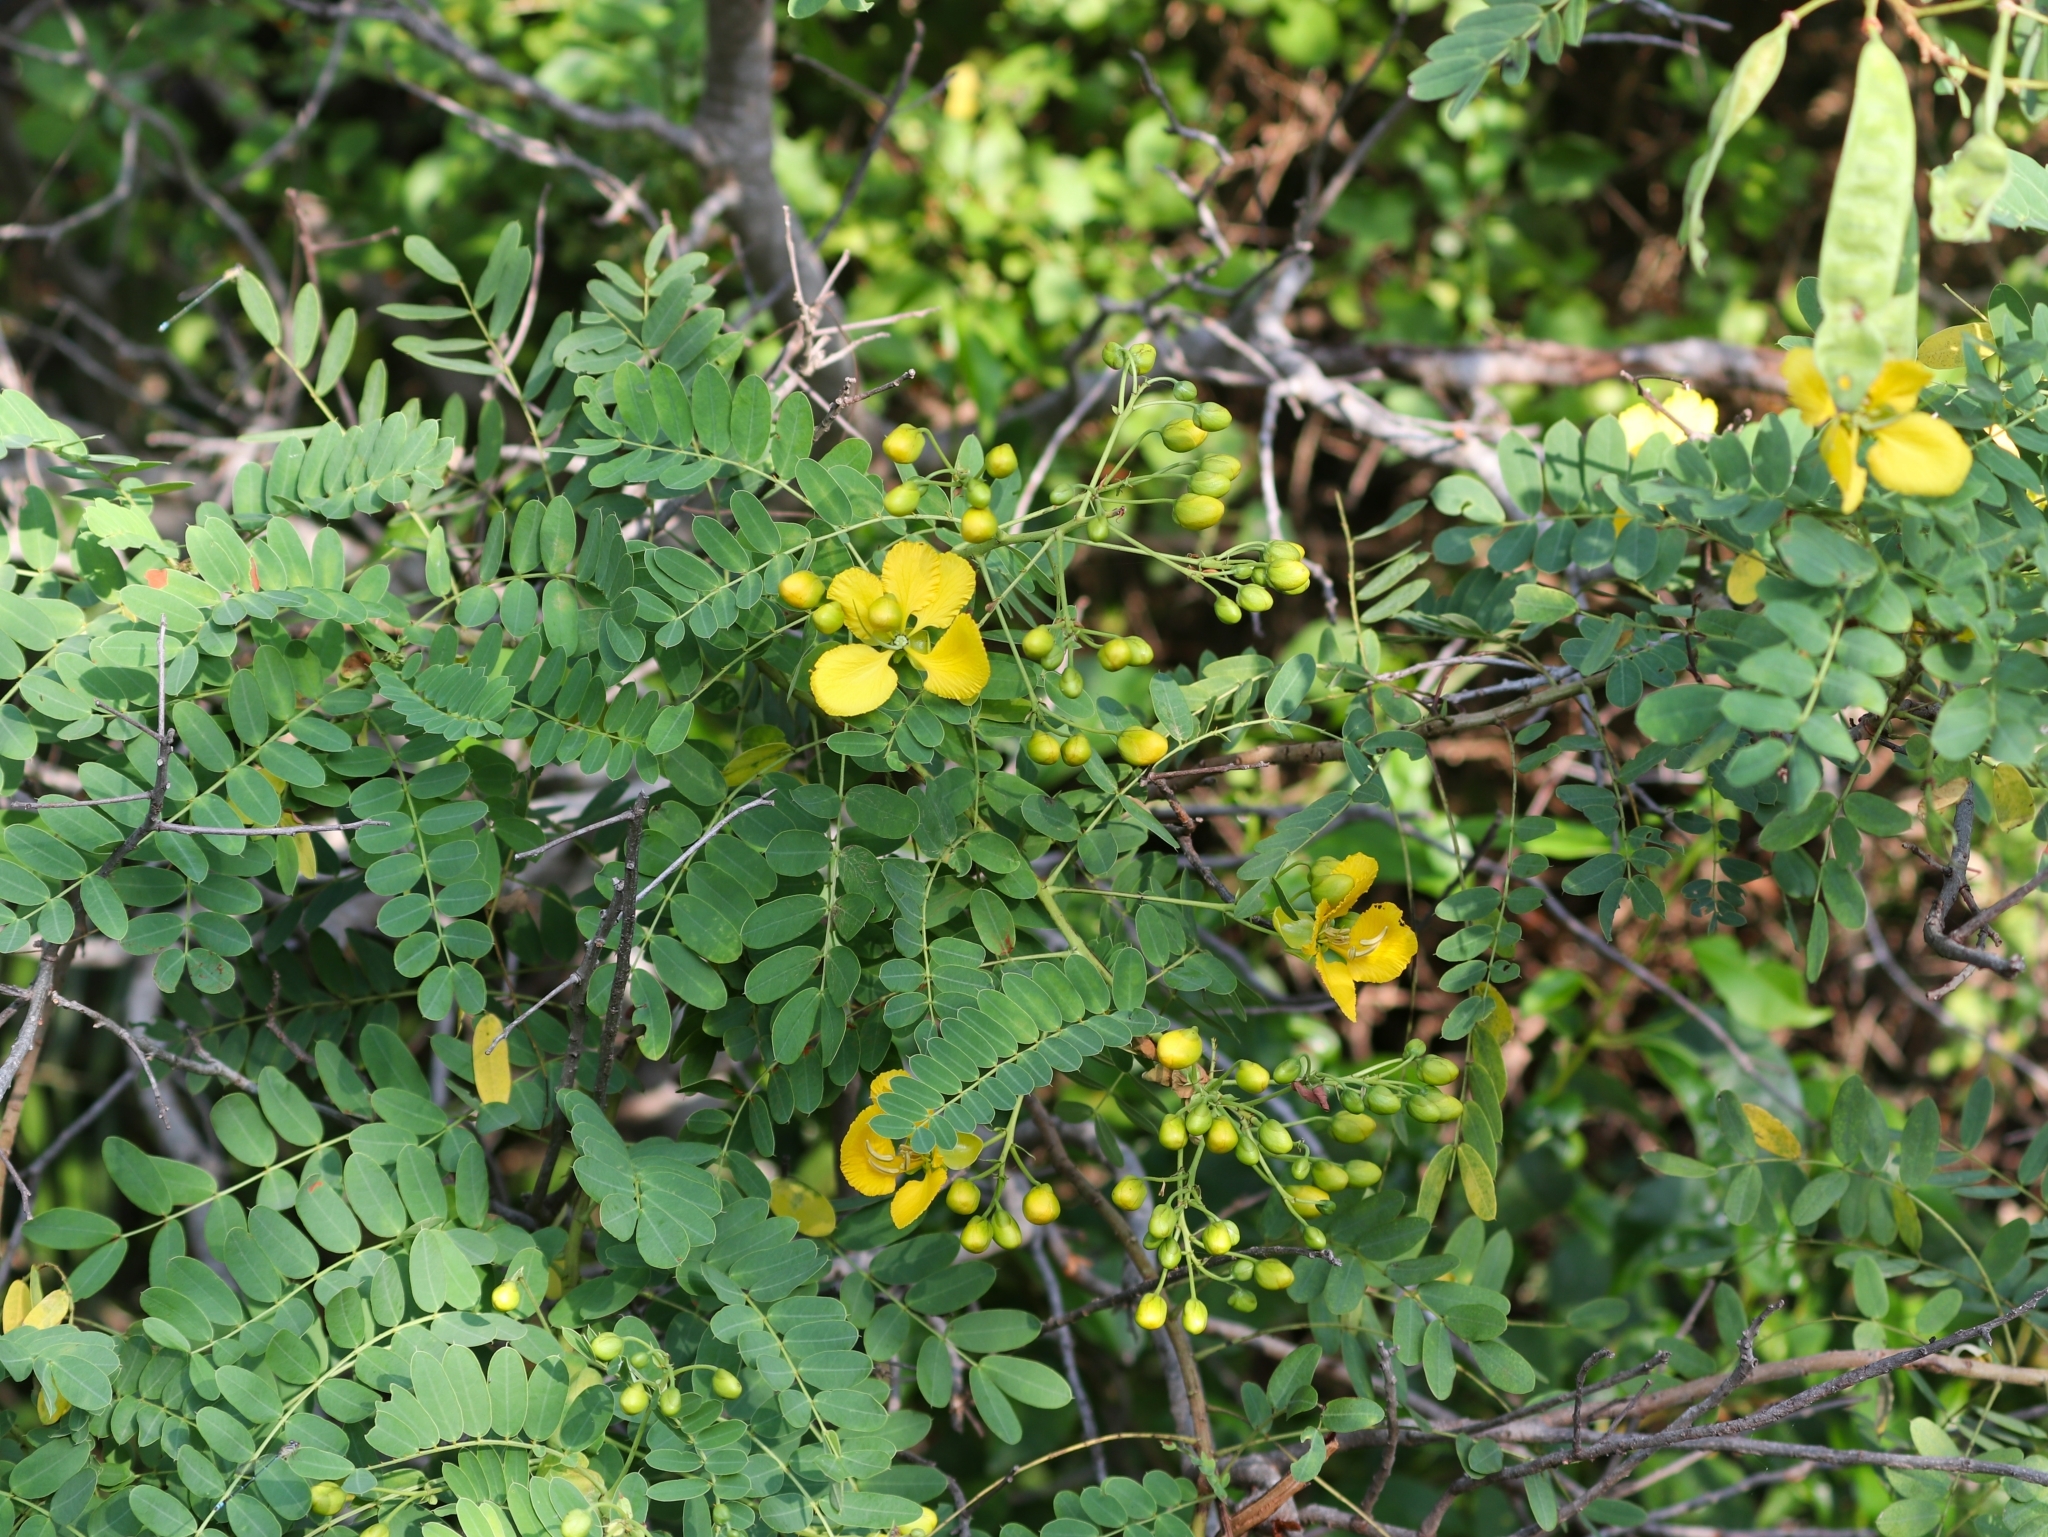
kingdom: Plantae
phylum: Tracheophyta
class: Magnoliopsida
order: Fabales
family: Fabaceae
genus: Senna
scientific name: Senna auriculata
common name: Tanner's cassia
